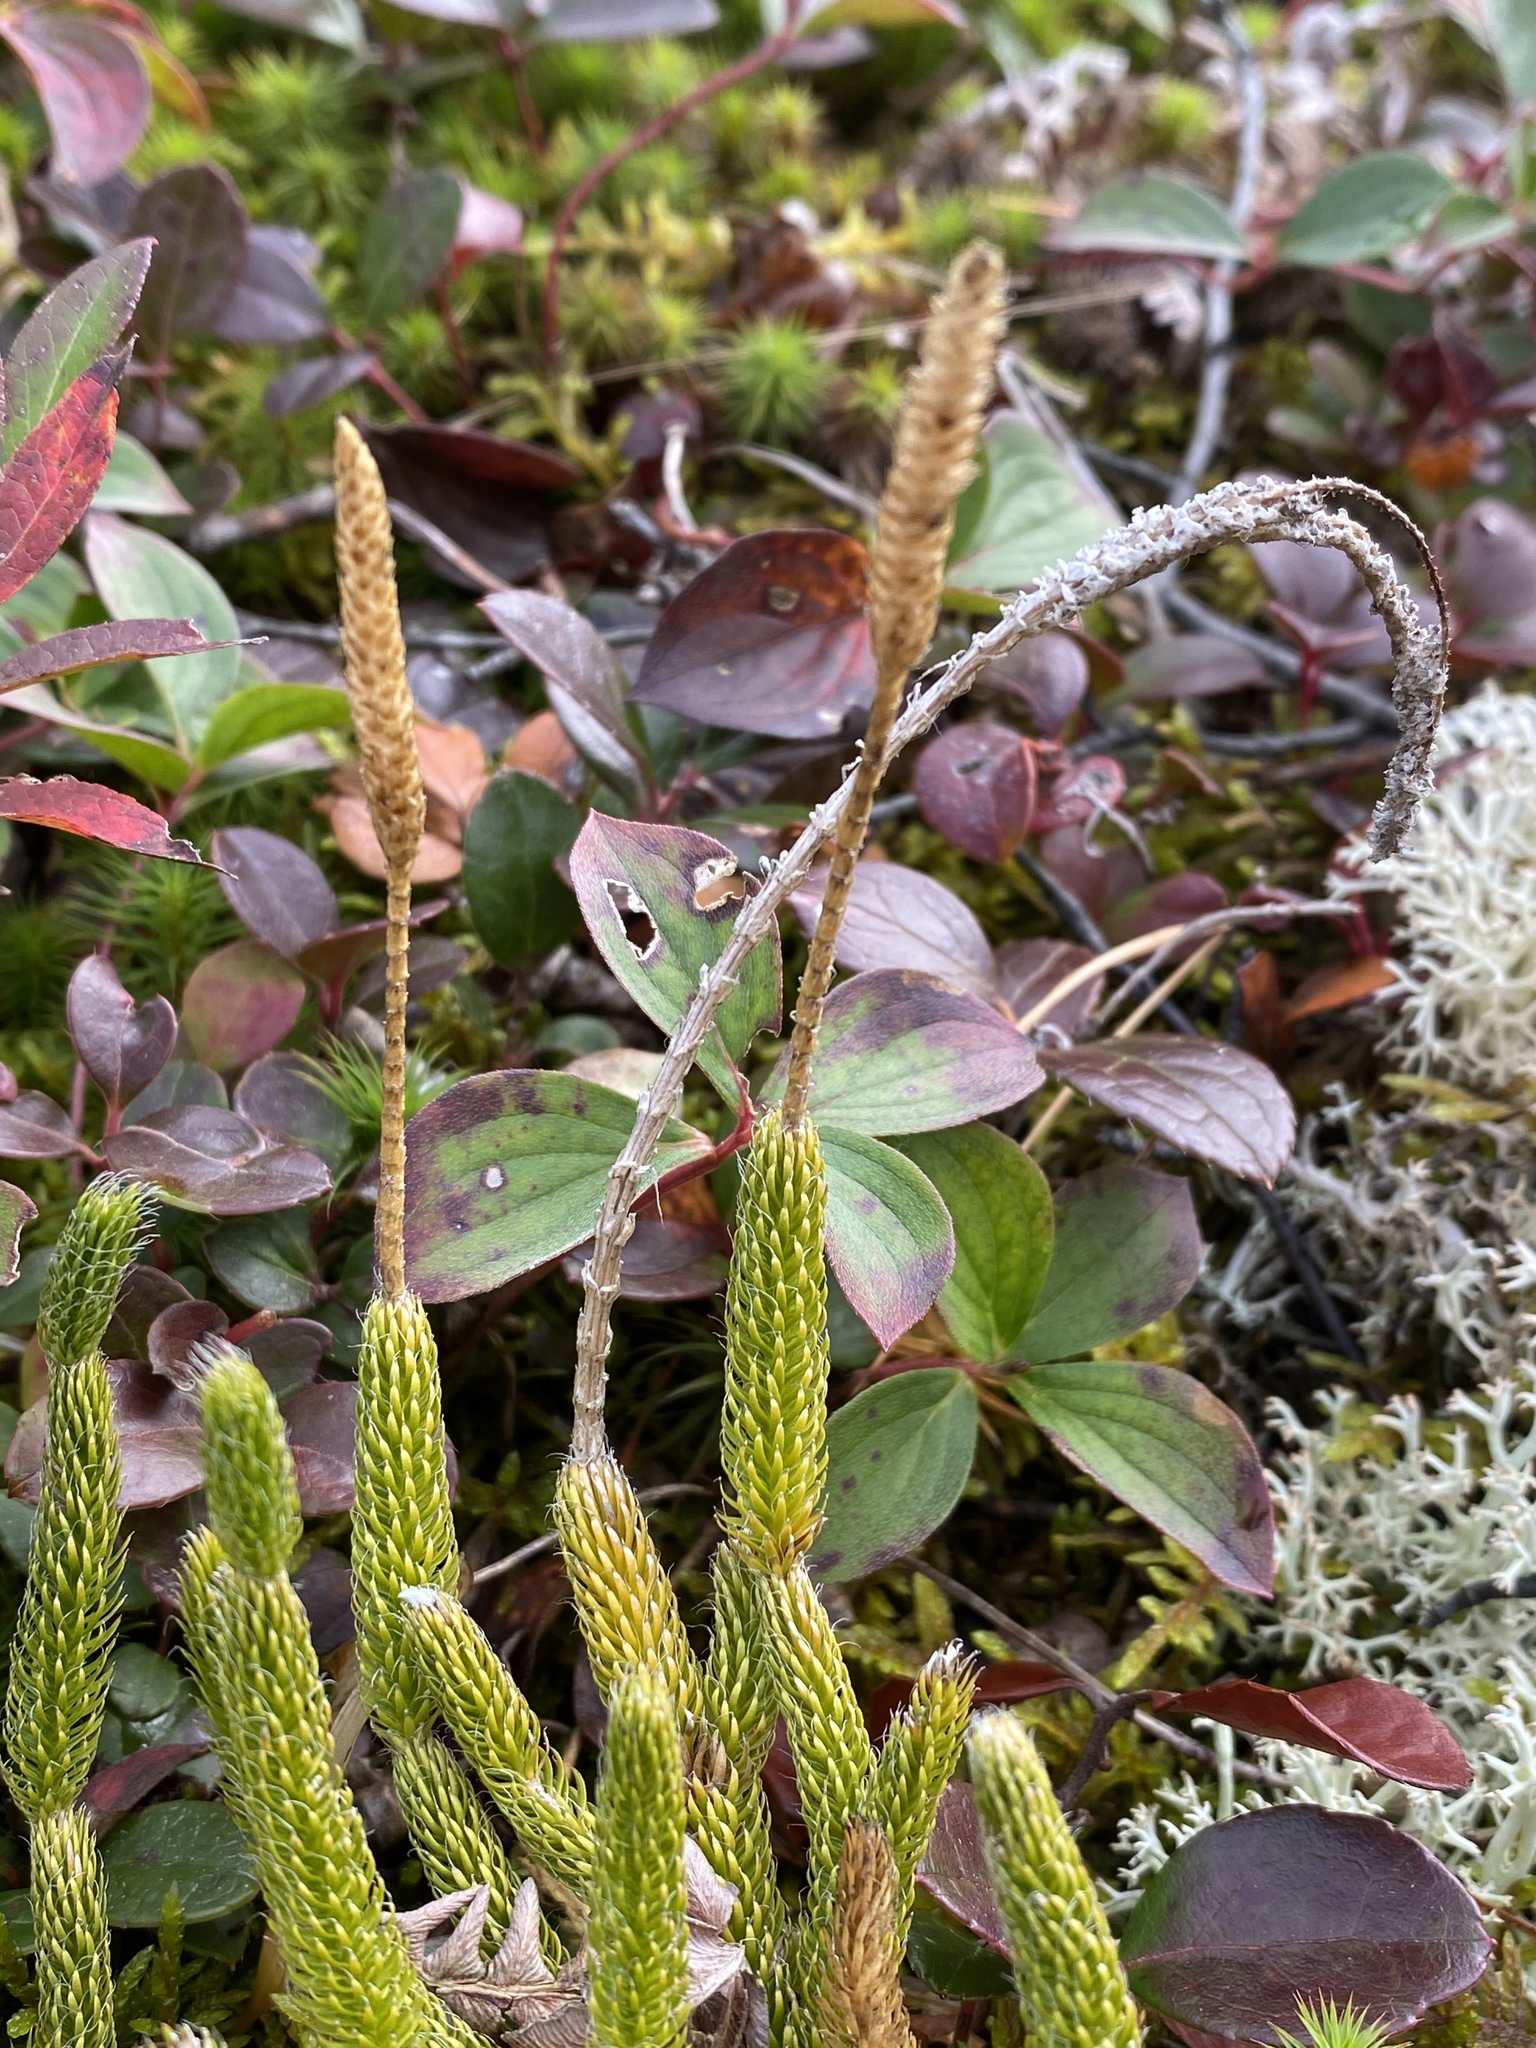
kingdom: Plantae
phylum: Tracheophyta
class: Lycopodiopsida
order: Lycopodiales
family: Lycopodiaceae
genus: Lycopodium
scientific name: Lycopodium lagopus
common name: One-cone clubmoss
